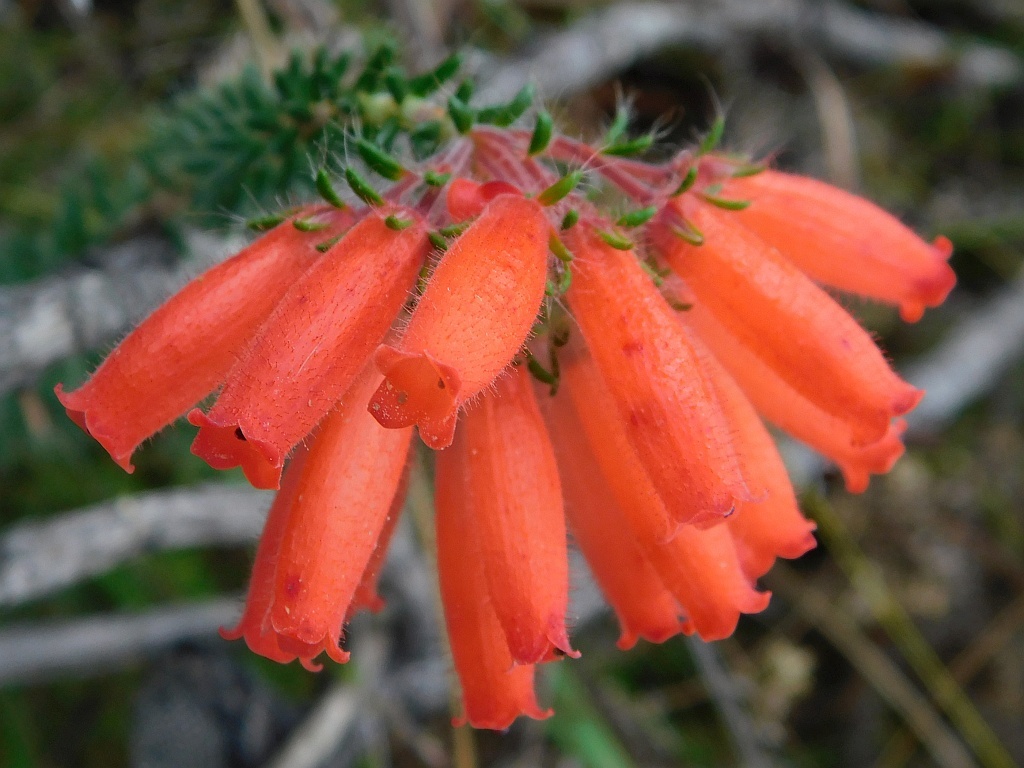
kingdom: Plantae
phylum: Tracheophyta
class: Magnoliopsida
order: Ericales
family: Ericaceae
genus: Erica
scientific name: Erica cerinthoides
